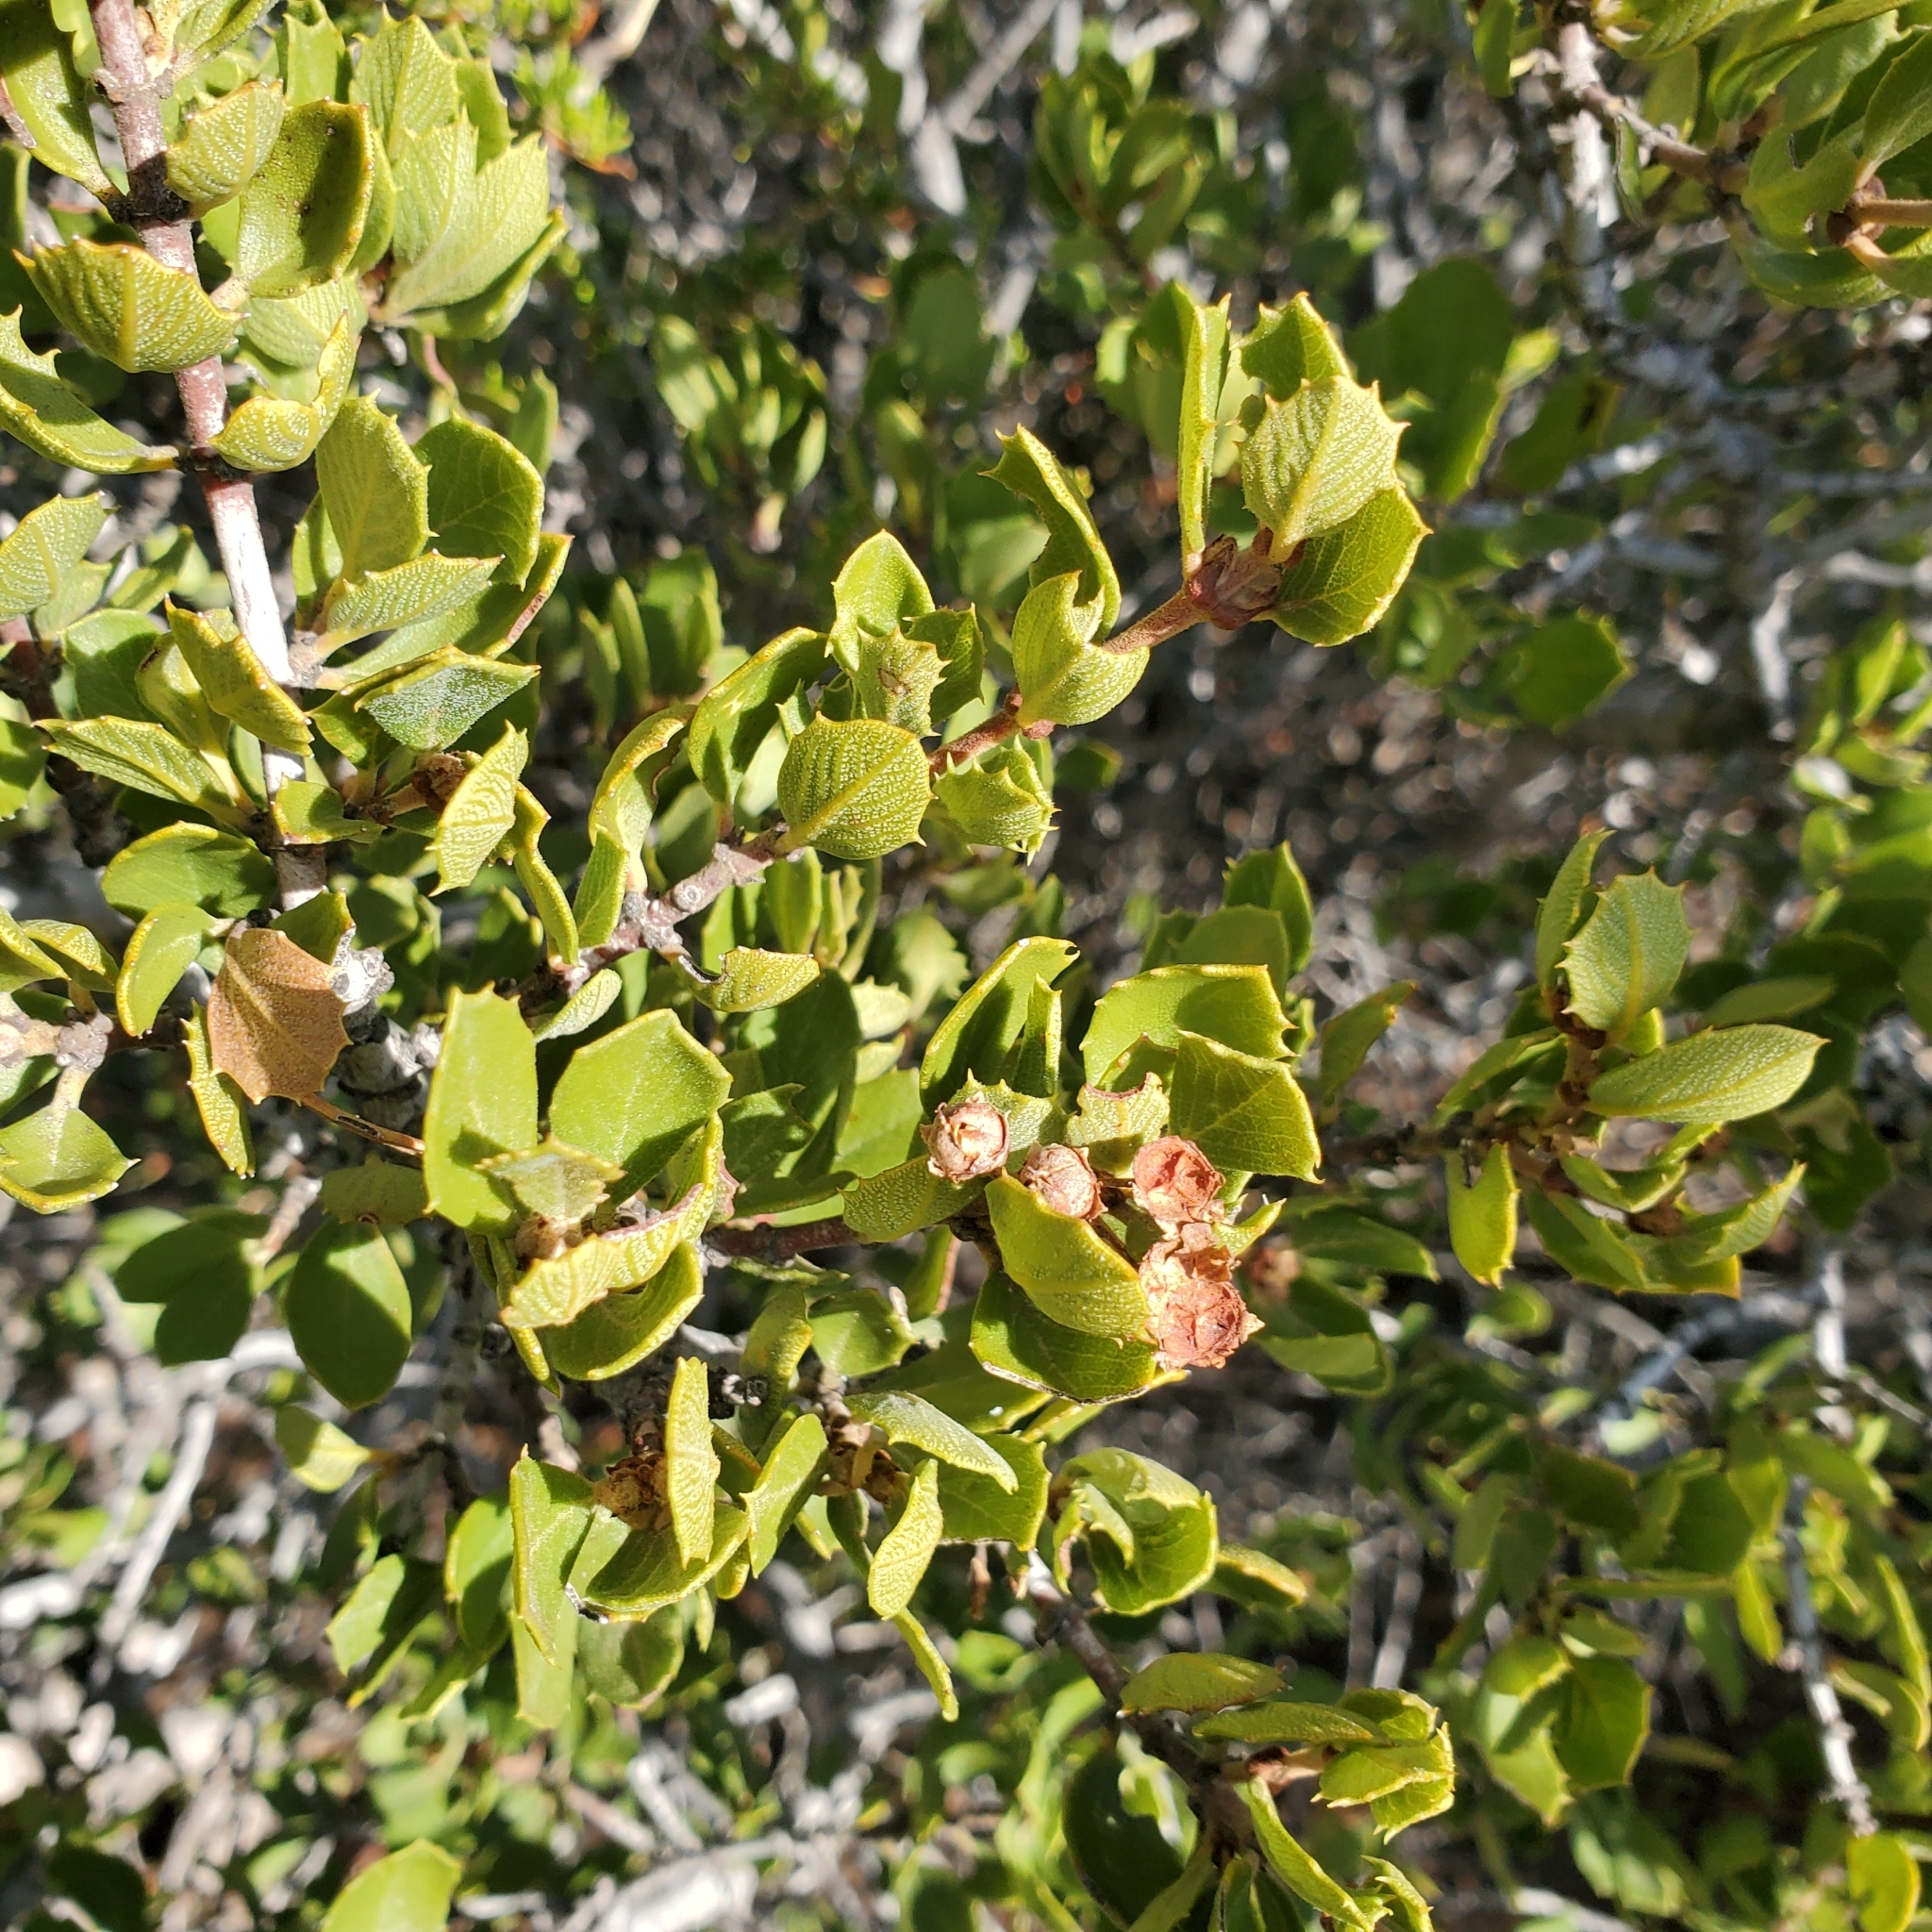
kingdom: Plantae
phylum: Tracheophyta
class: Magnoliopsida
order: Rosales
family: Rhamnaceae
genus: Ceanothus
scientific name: Ceanothus perplexans
